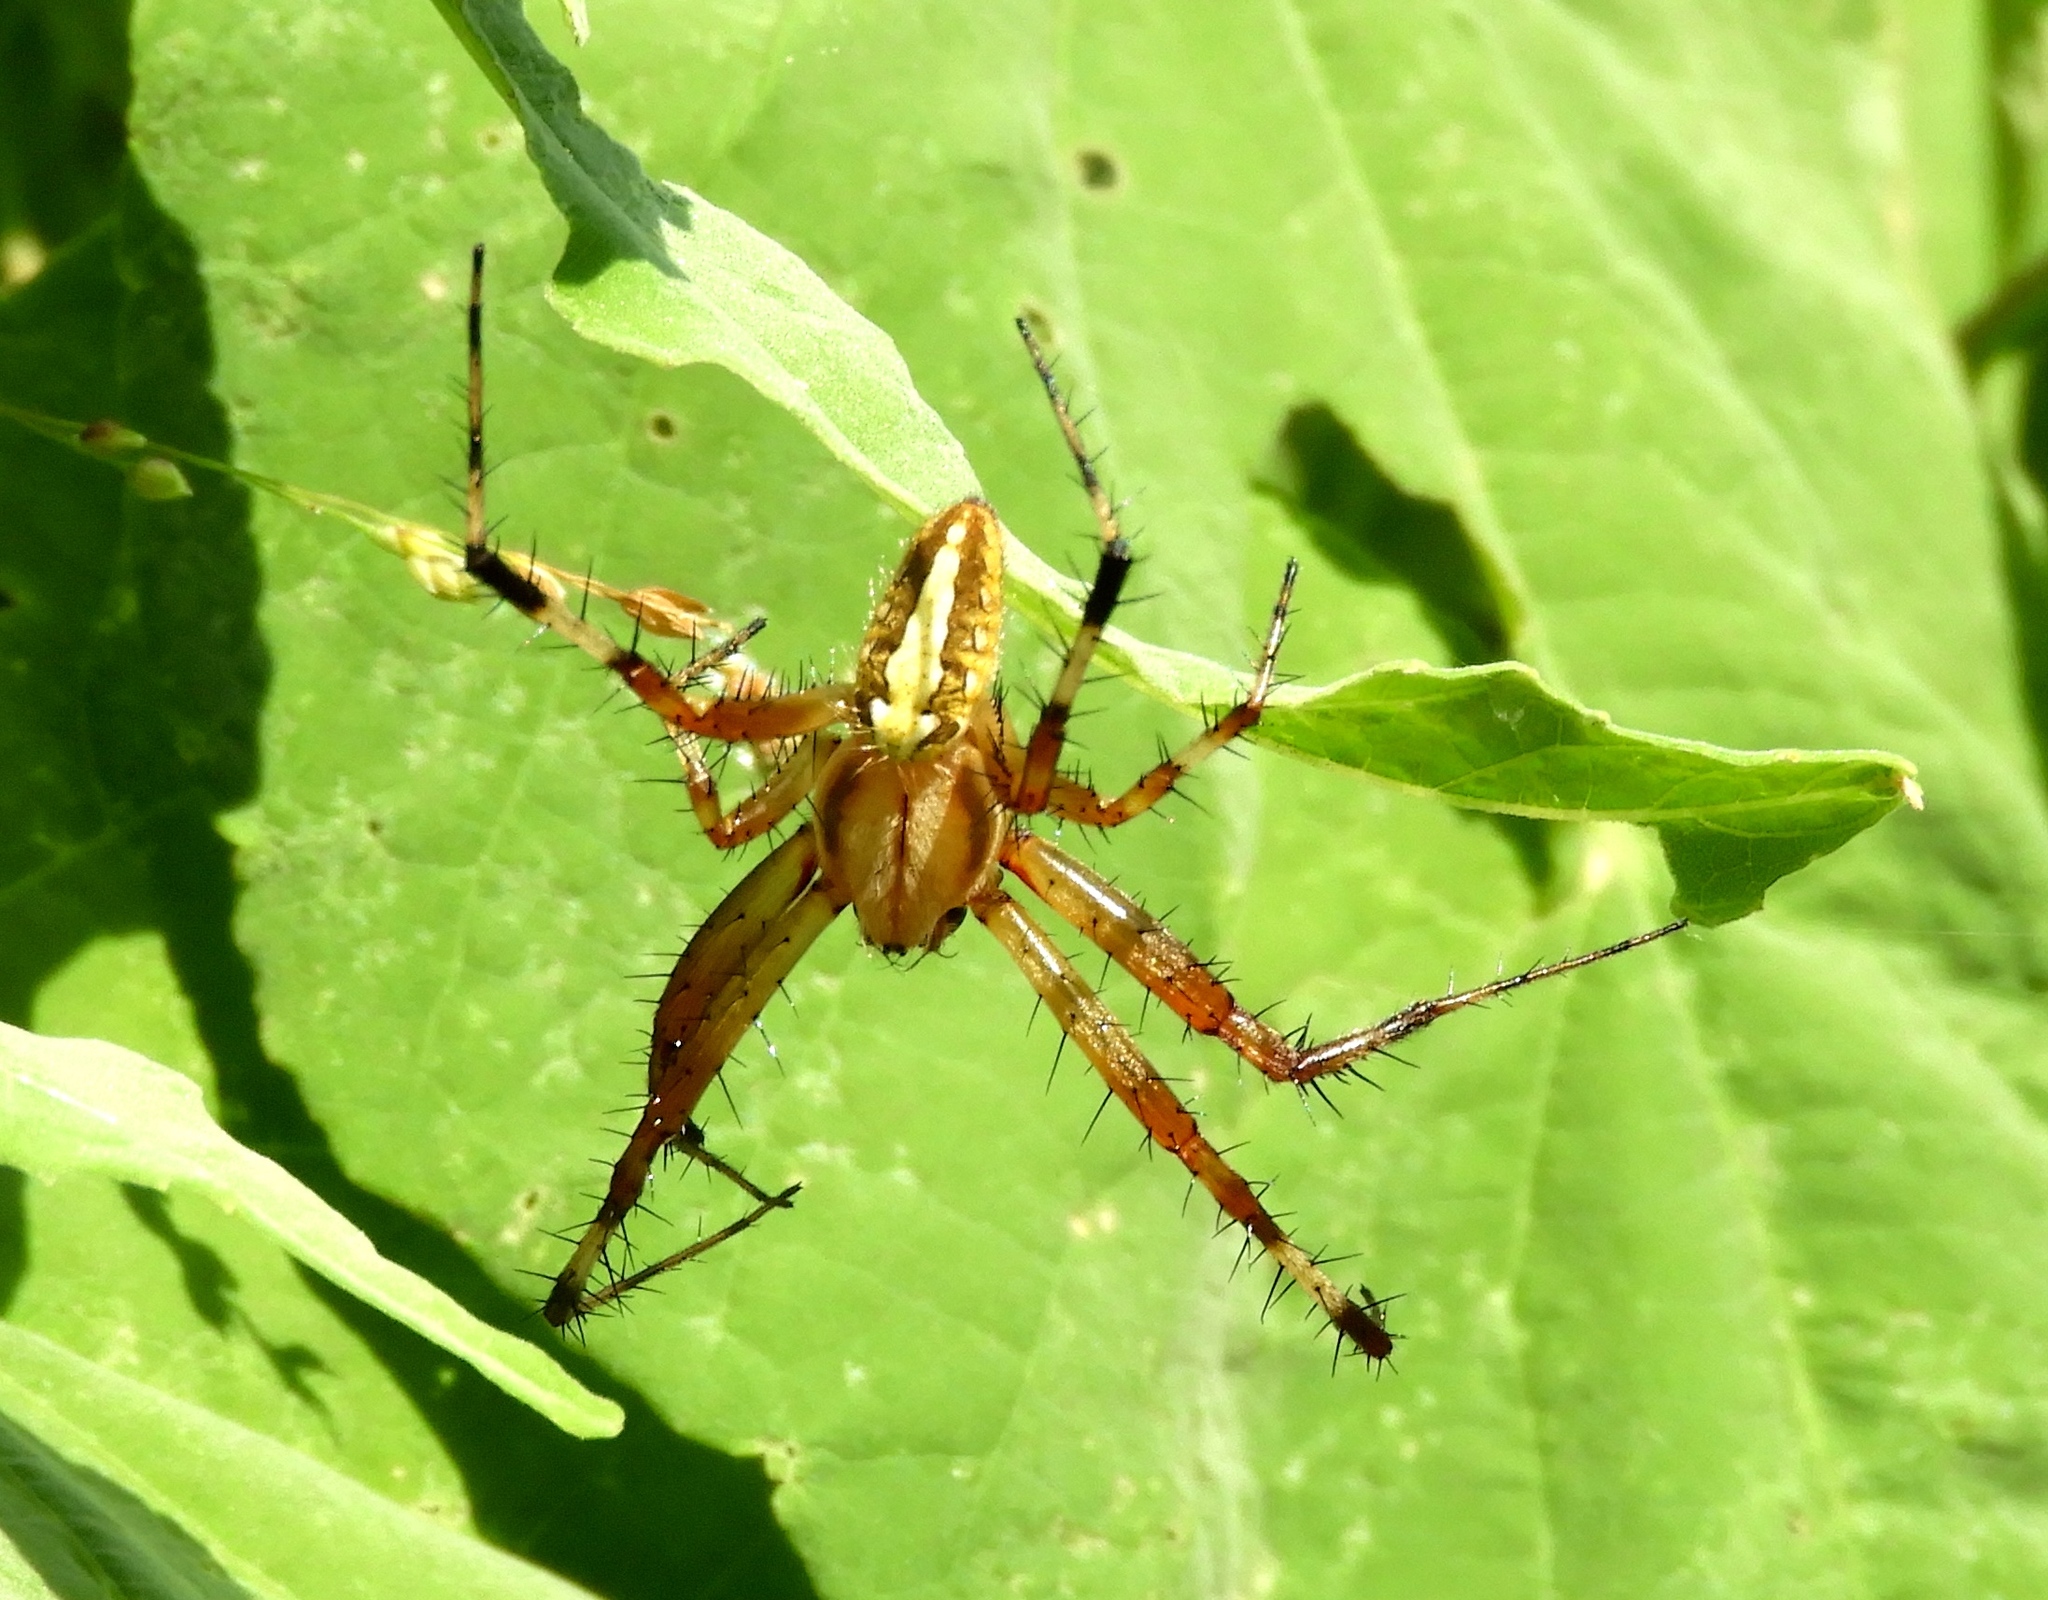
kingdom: Animalia
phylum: Arthropoda
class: Arachnida
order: Araneae
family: Araneidae
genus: Neoscona
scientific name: Neoscona
